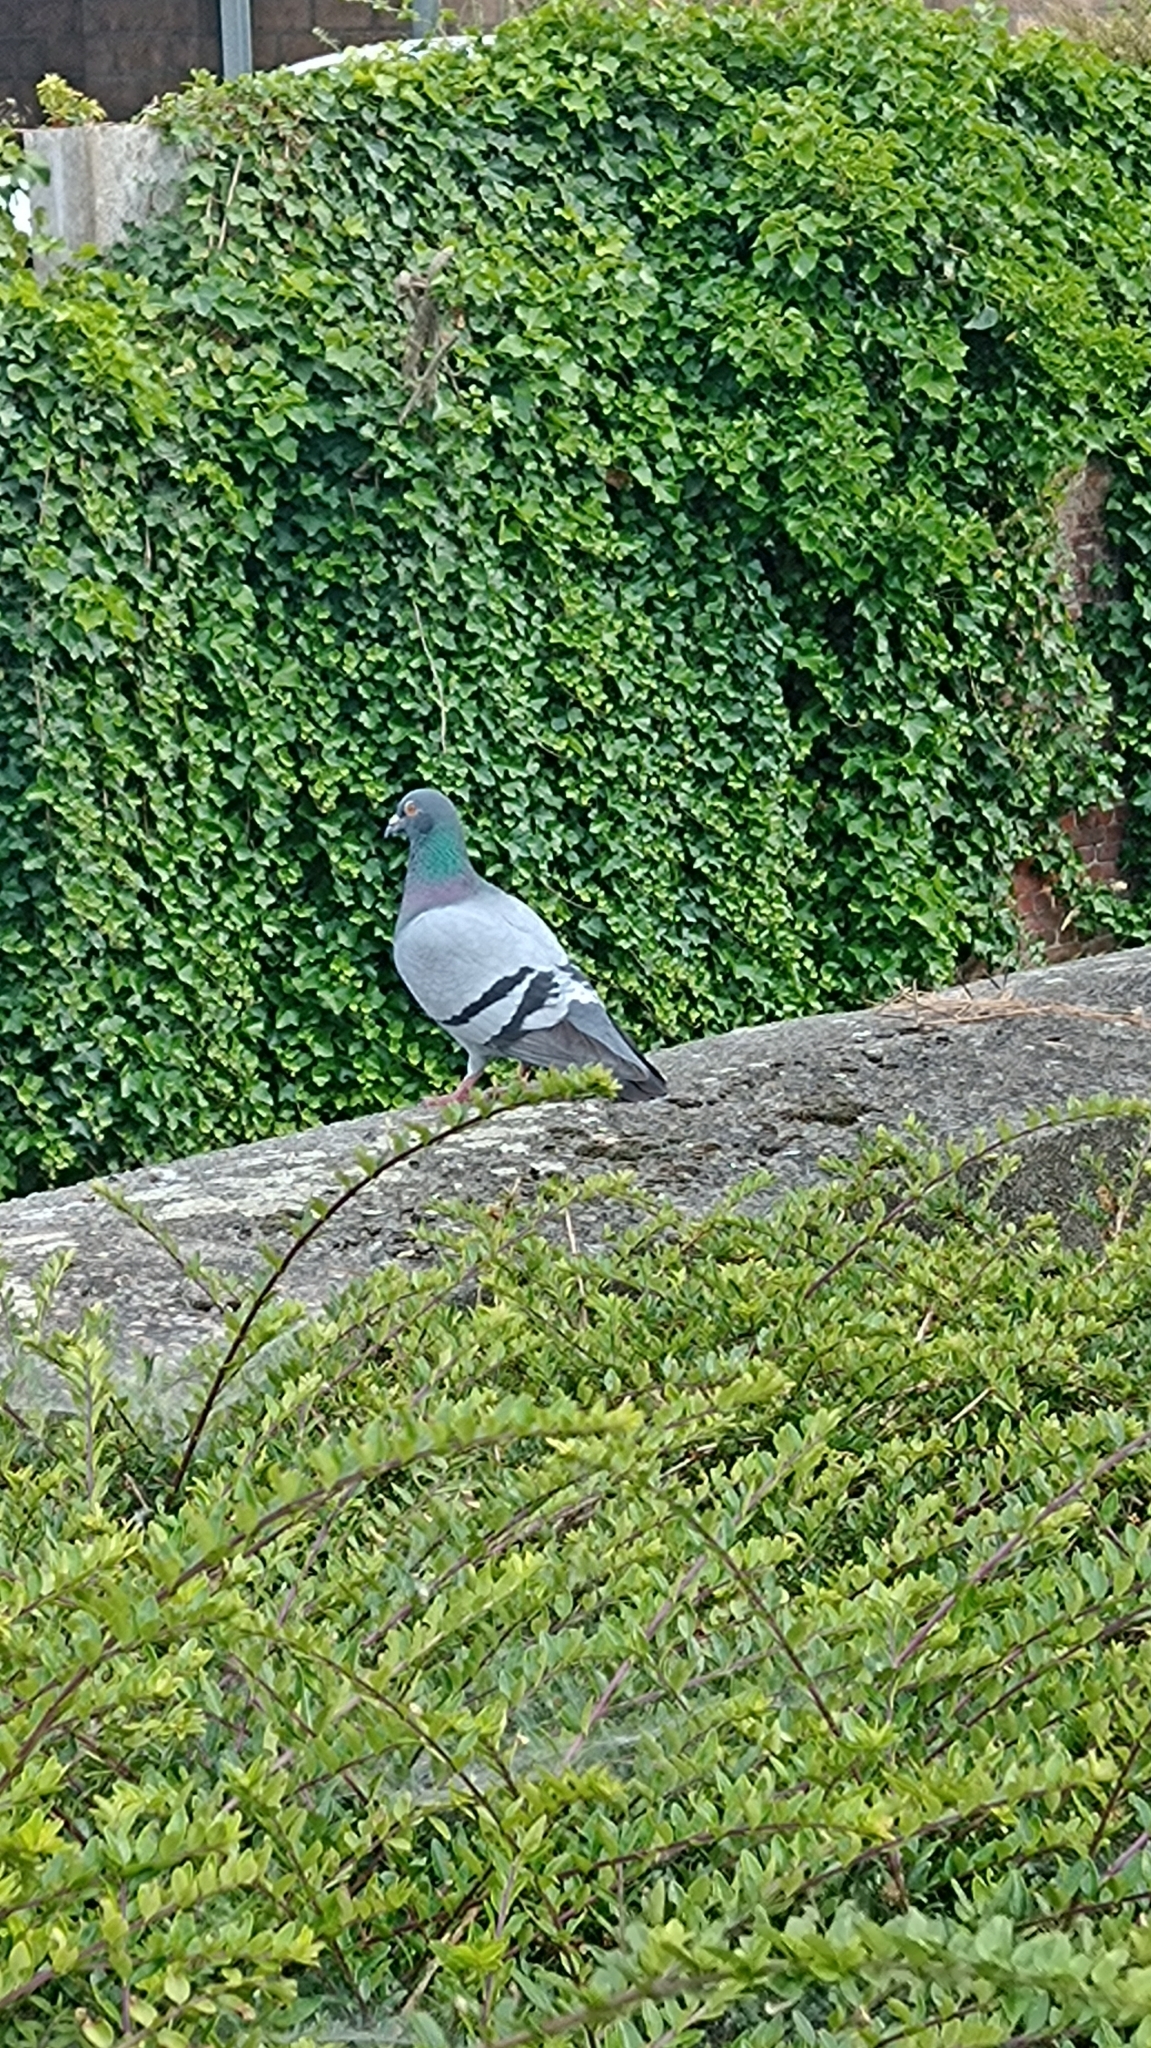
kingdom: Animalia
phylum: Chordata
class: Aves
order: Columbiformes
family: Columbidae
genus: Columba
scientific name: Columba livia
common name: Rock pigeon
